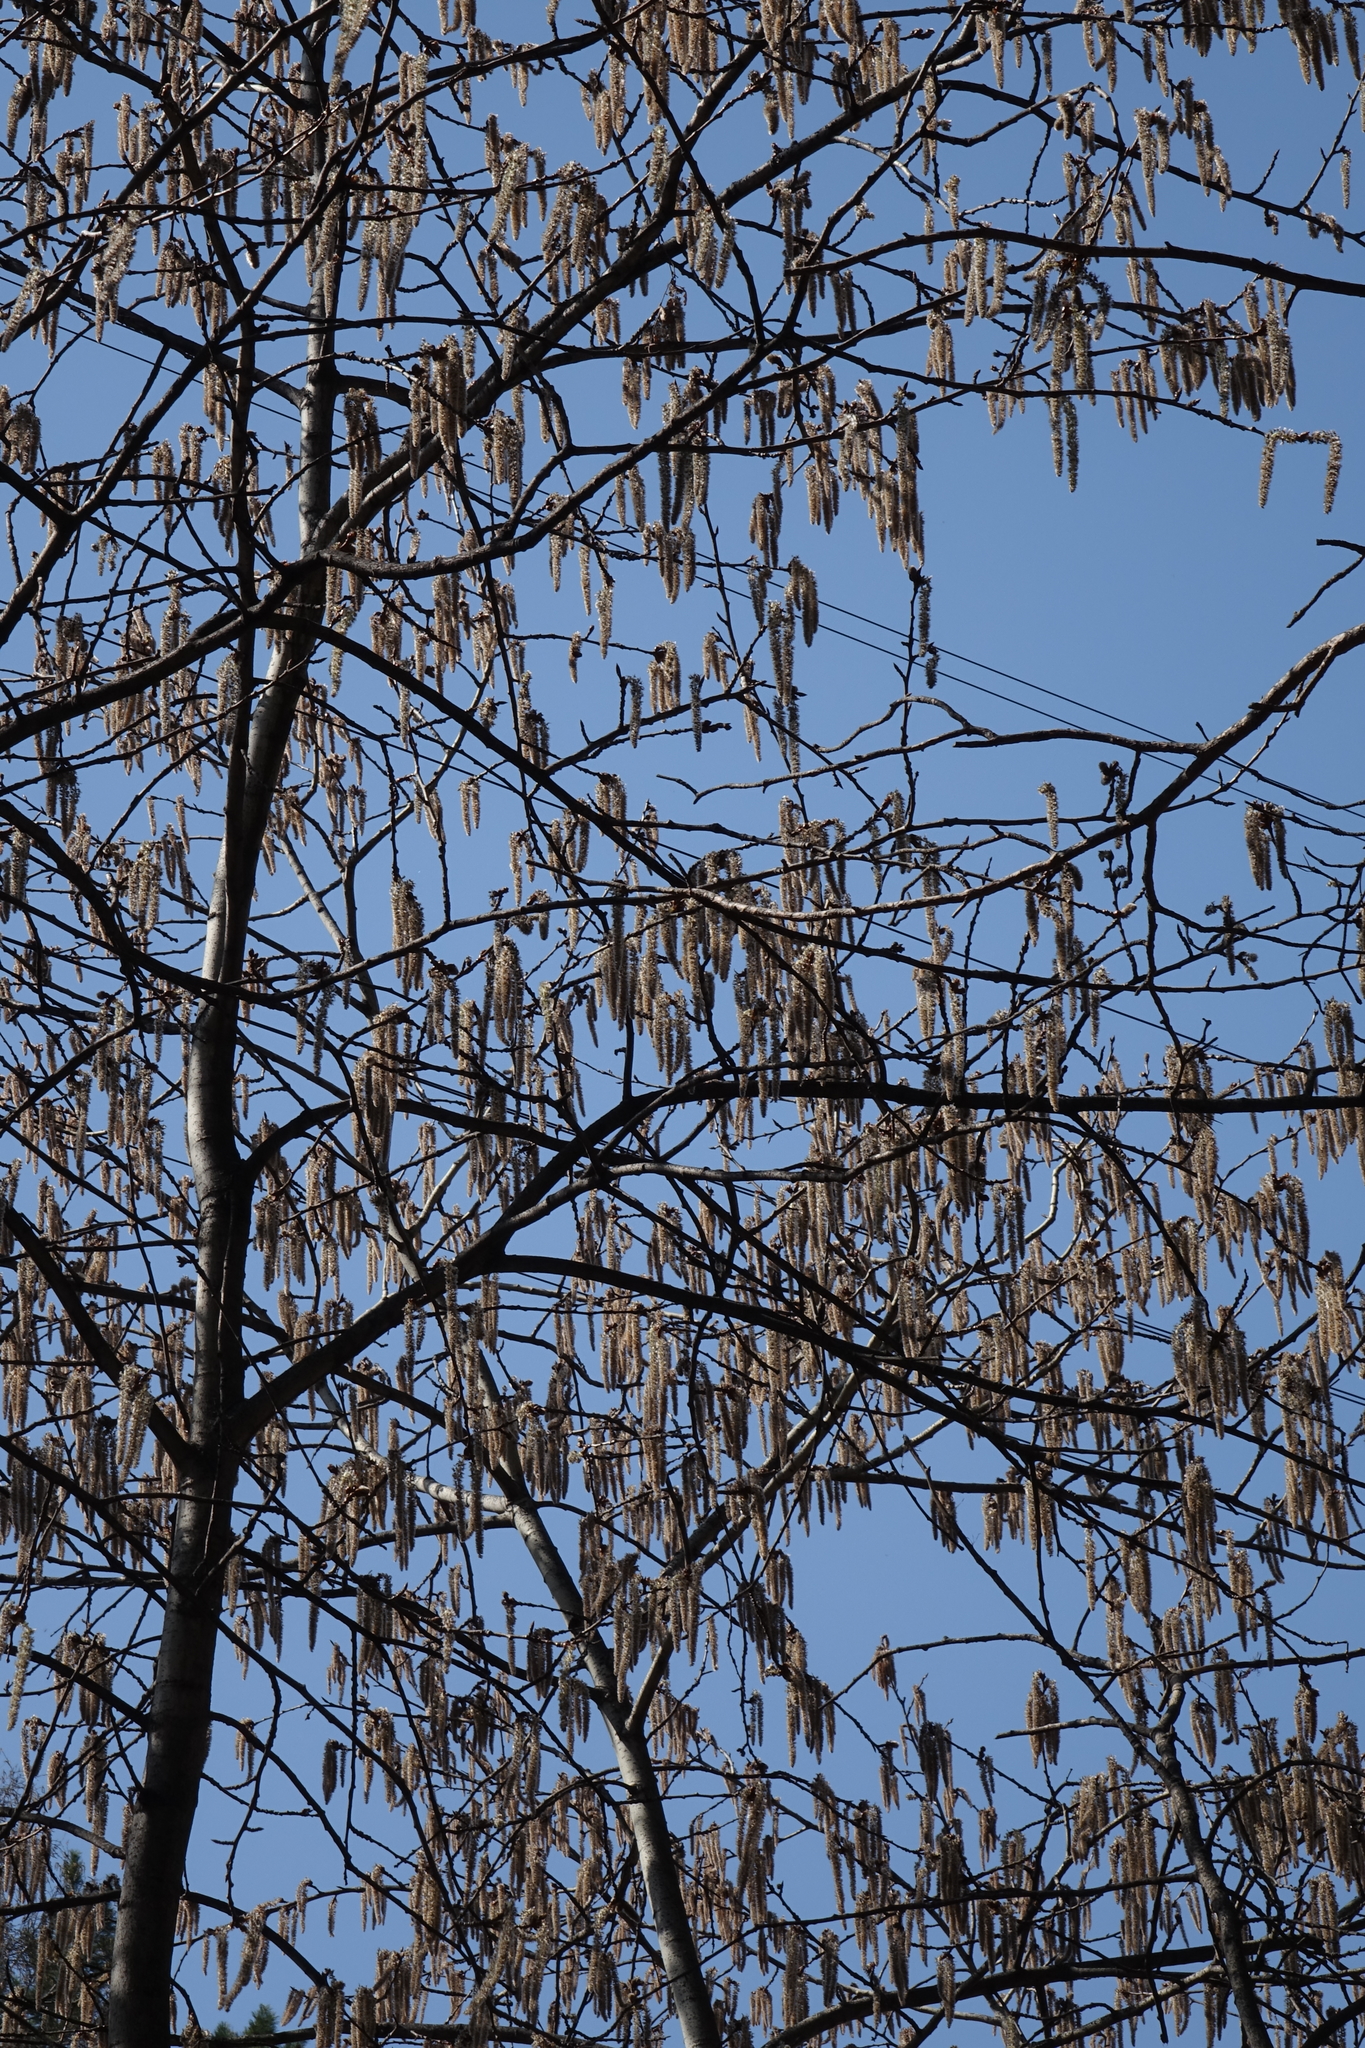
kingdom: Plantae
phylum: Tracheophyta
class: Magnoliopsida
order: Malpighiales
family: Salicaceae
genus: Populus
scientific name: Populus tremula
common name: European aspen
